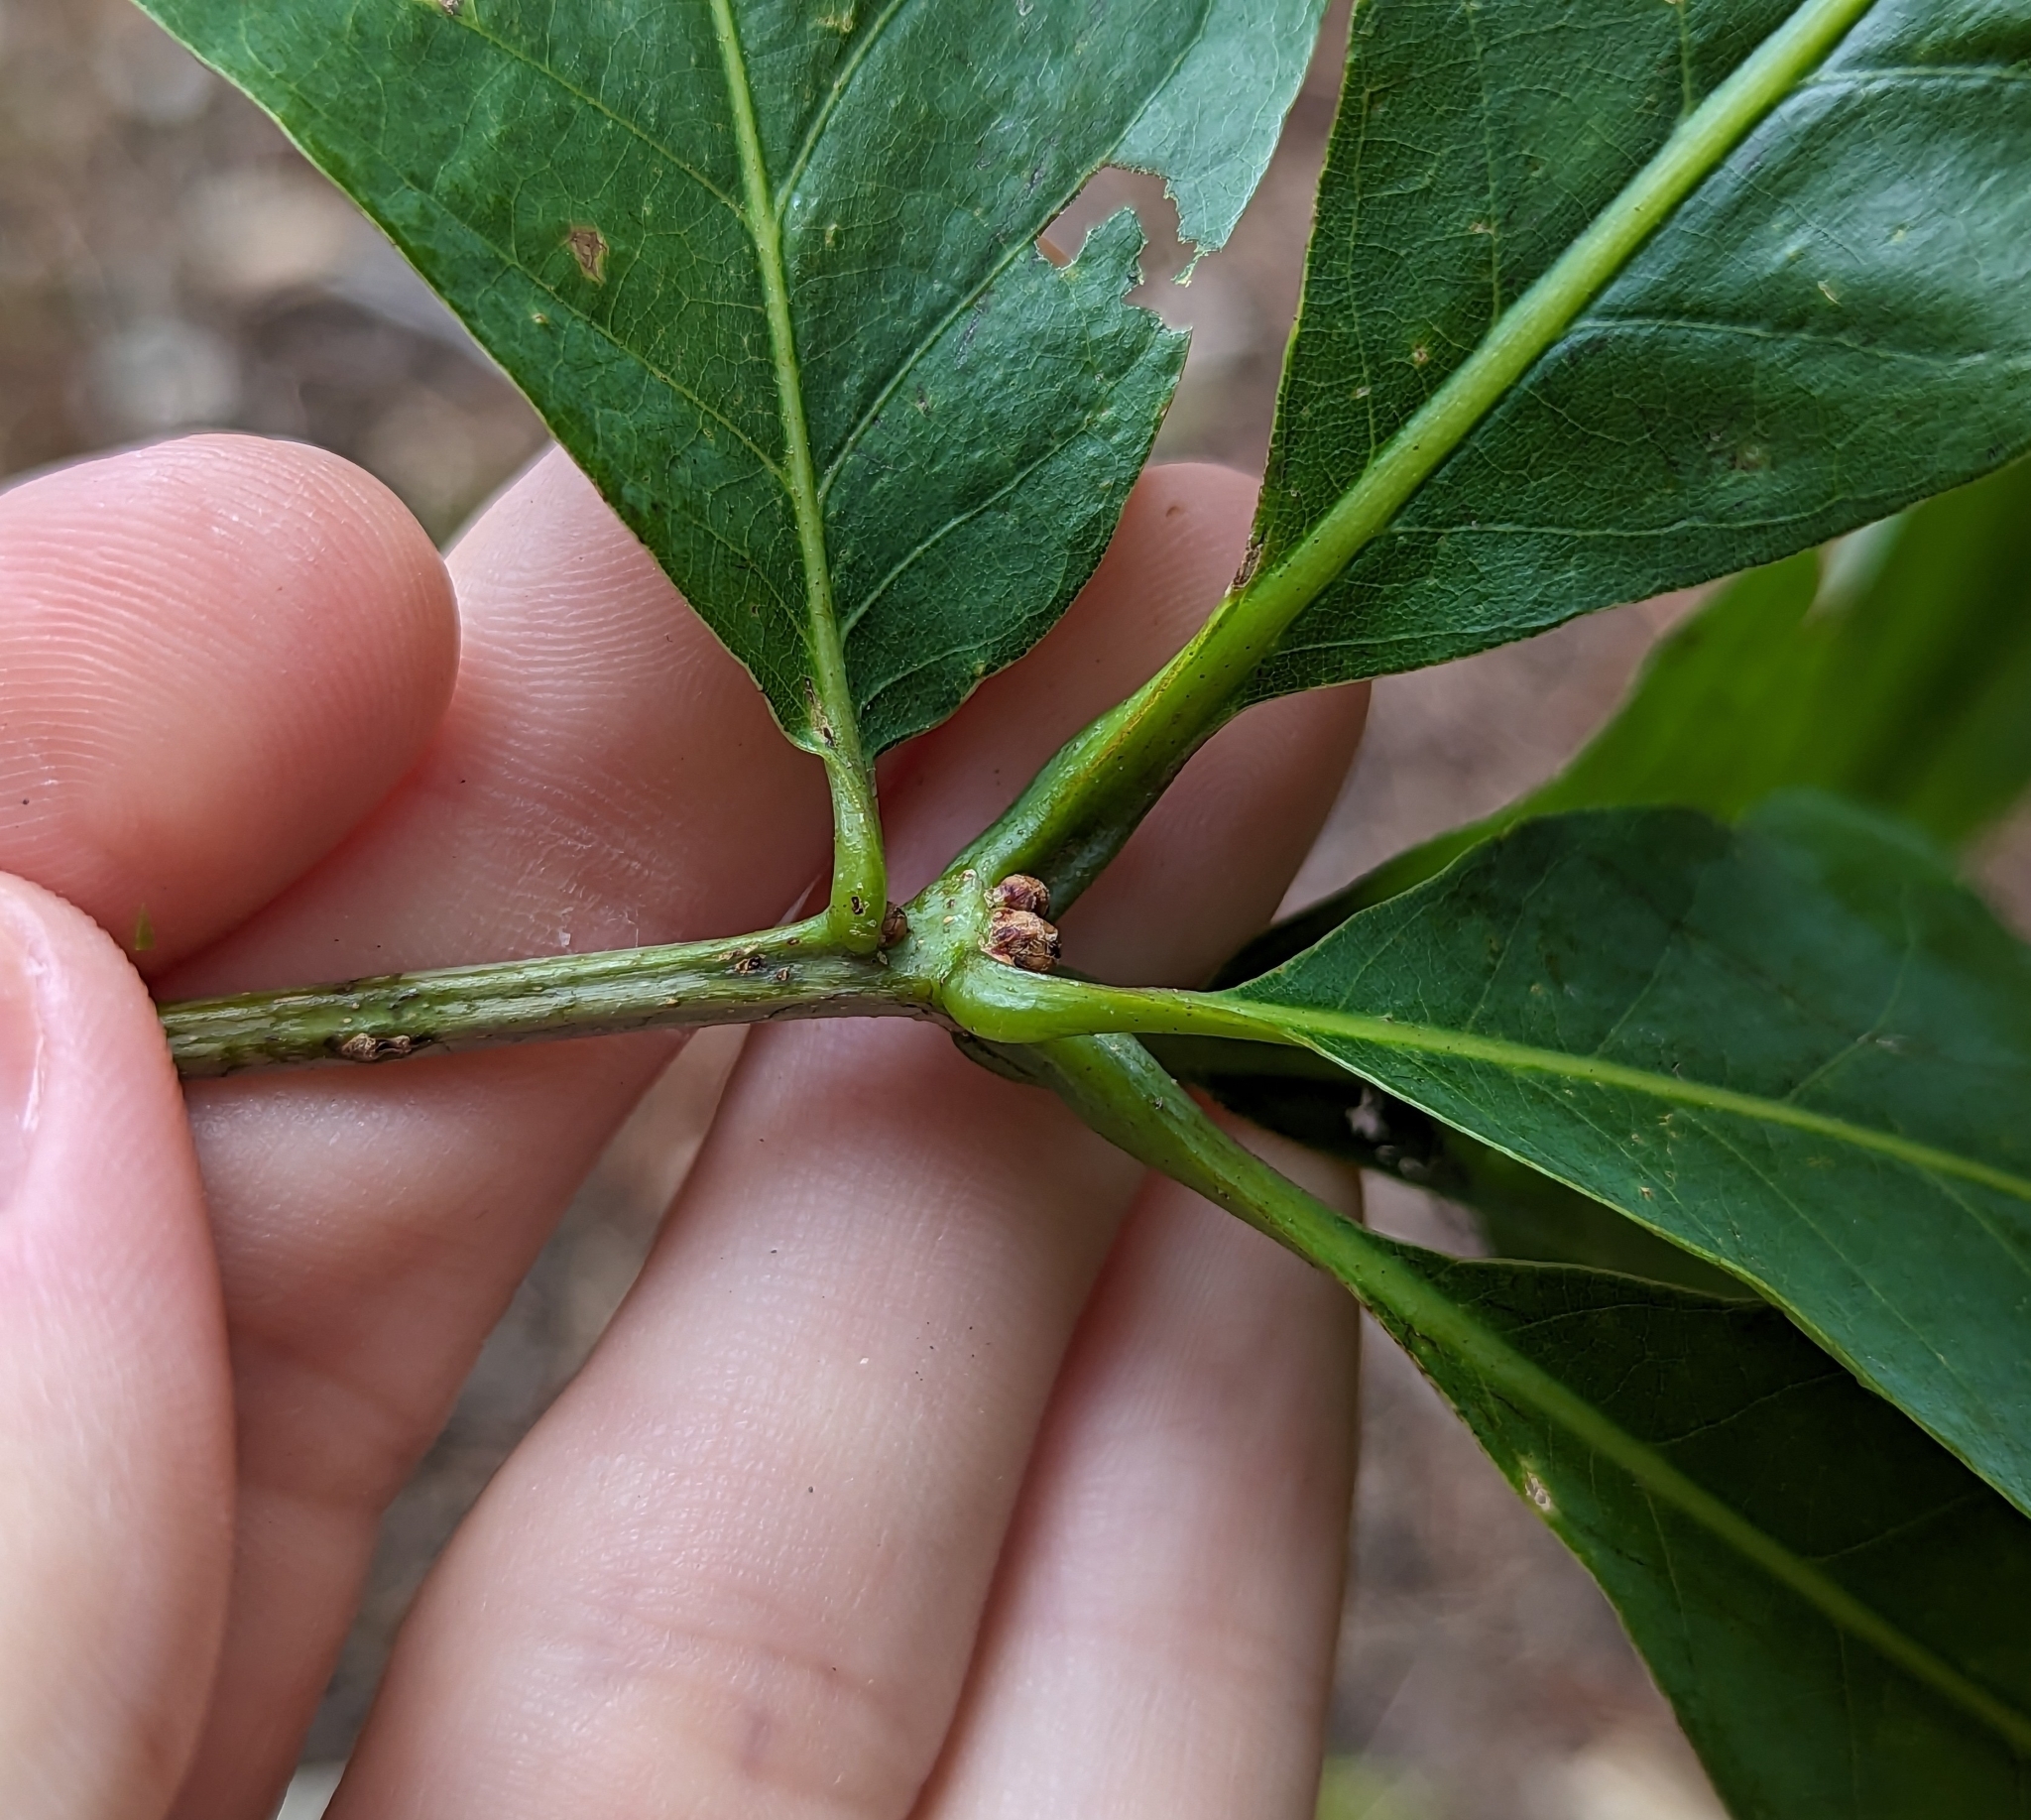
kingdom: Plantae
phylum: Tracheophyta
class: Magnoliopsida
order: Fagales
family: Fagaceae
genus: Quercus
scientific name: Quercus alba
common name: White oak
